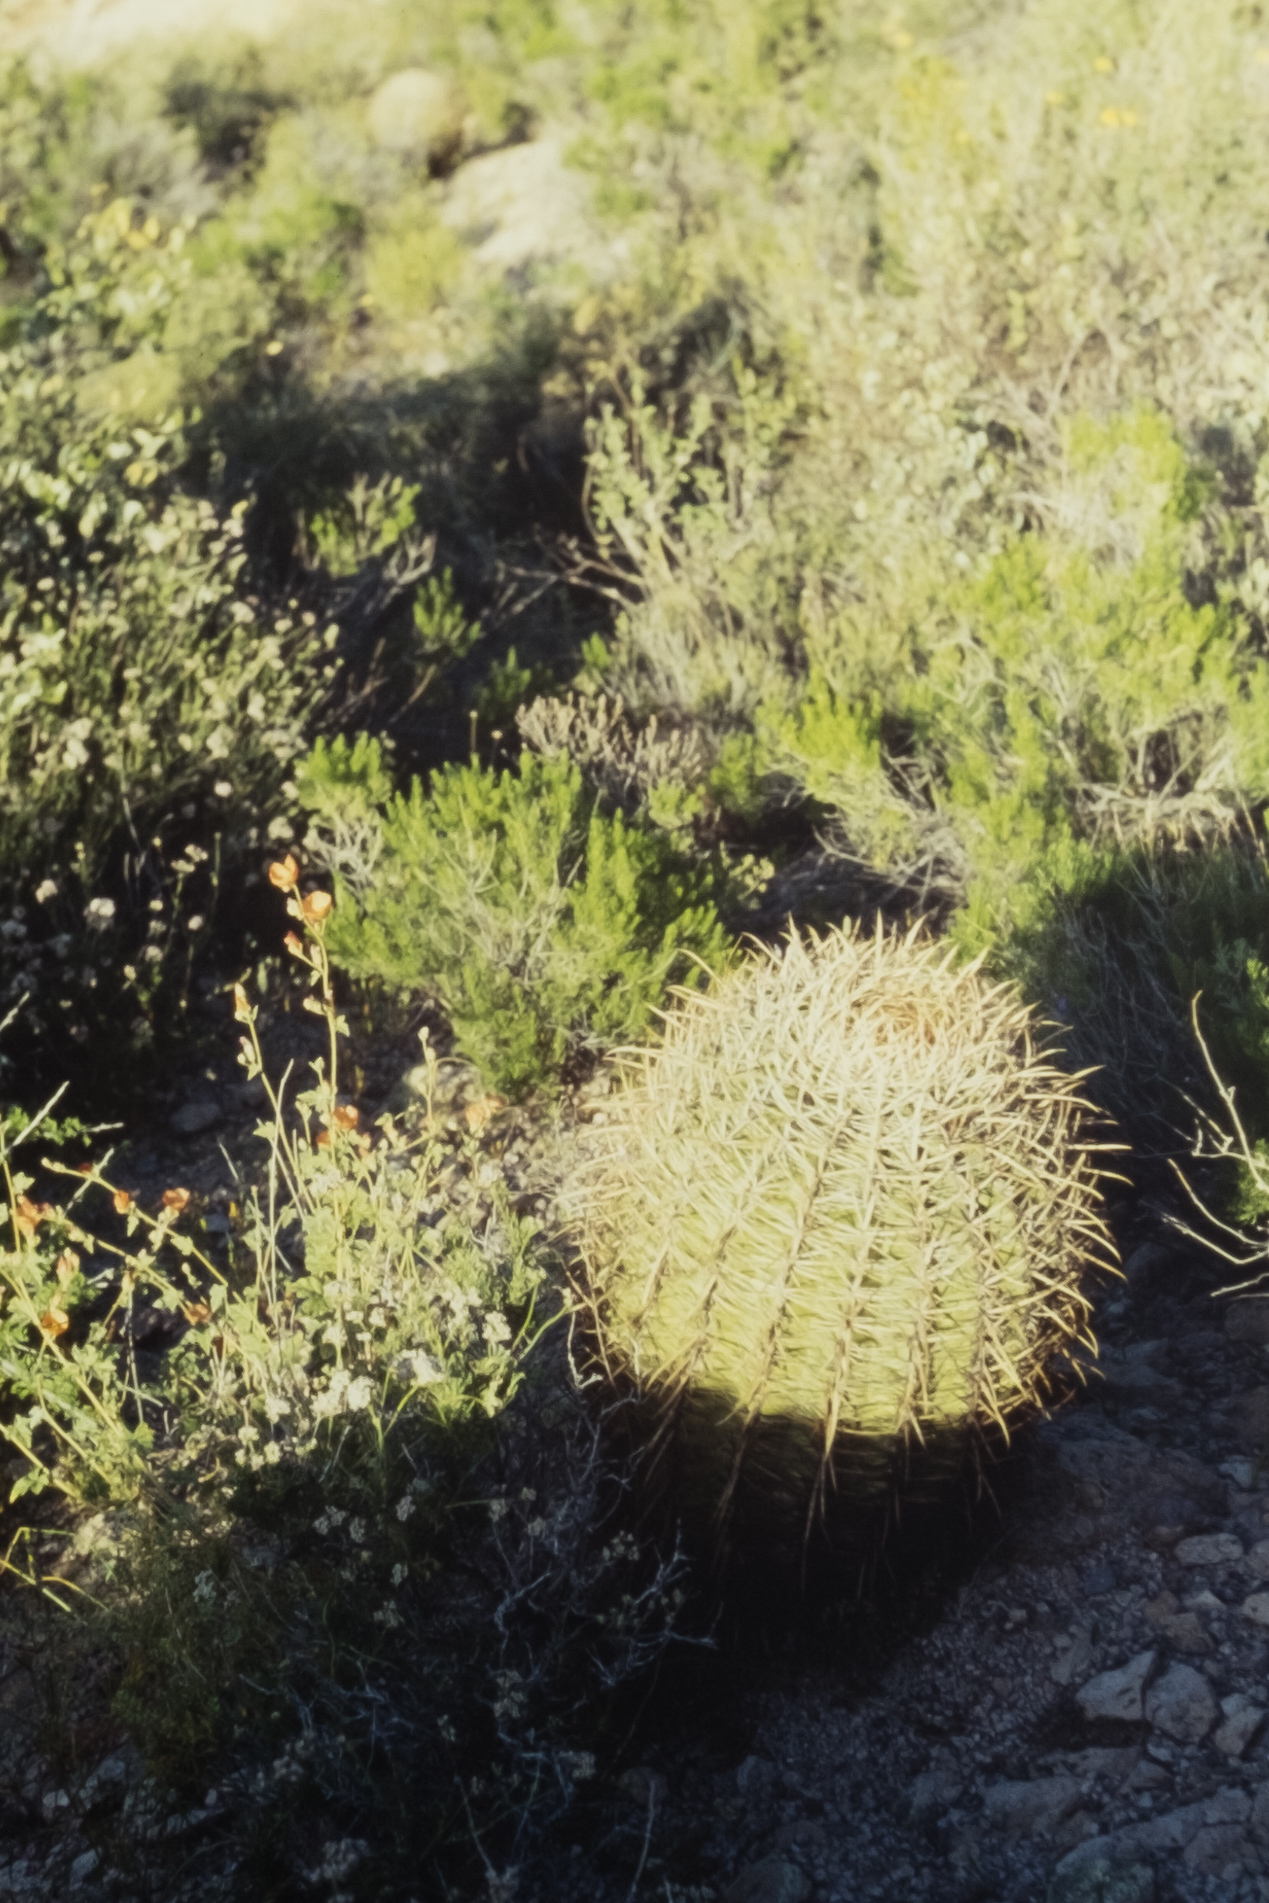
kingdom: Plantae
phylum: Tracheophyta
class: Magnoliopsida
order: Caryophyllales
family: Cactaceae
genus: Ferocactus
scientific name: Ferocactus cylindraceus
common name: California barrel cactus
